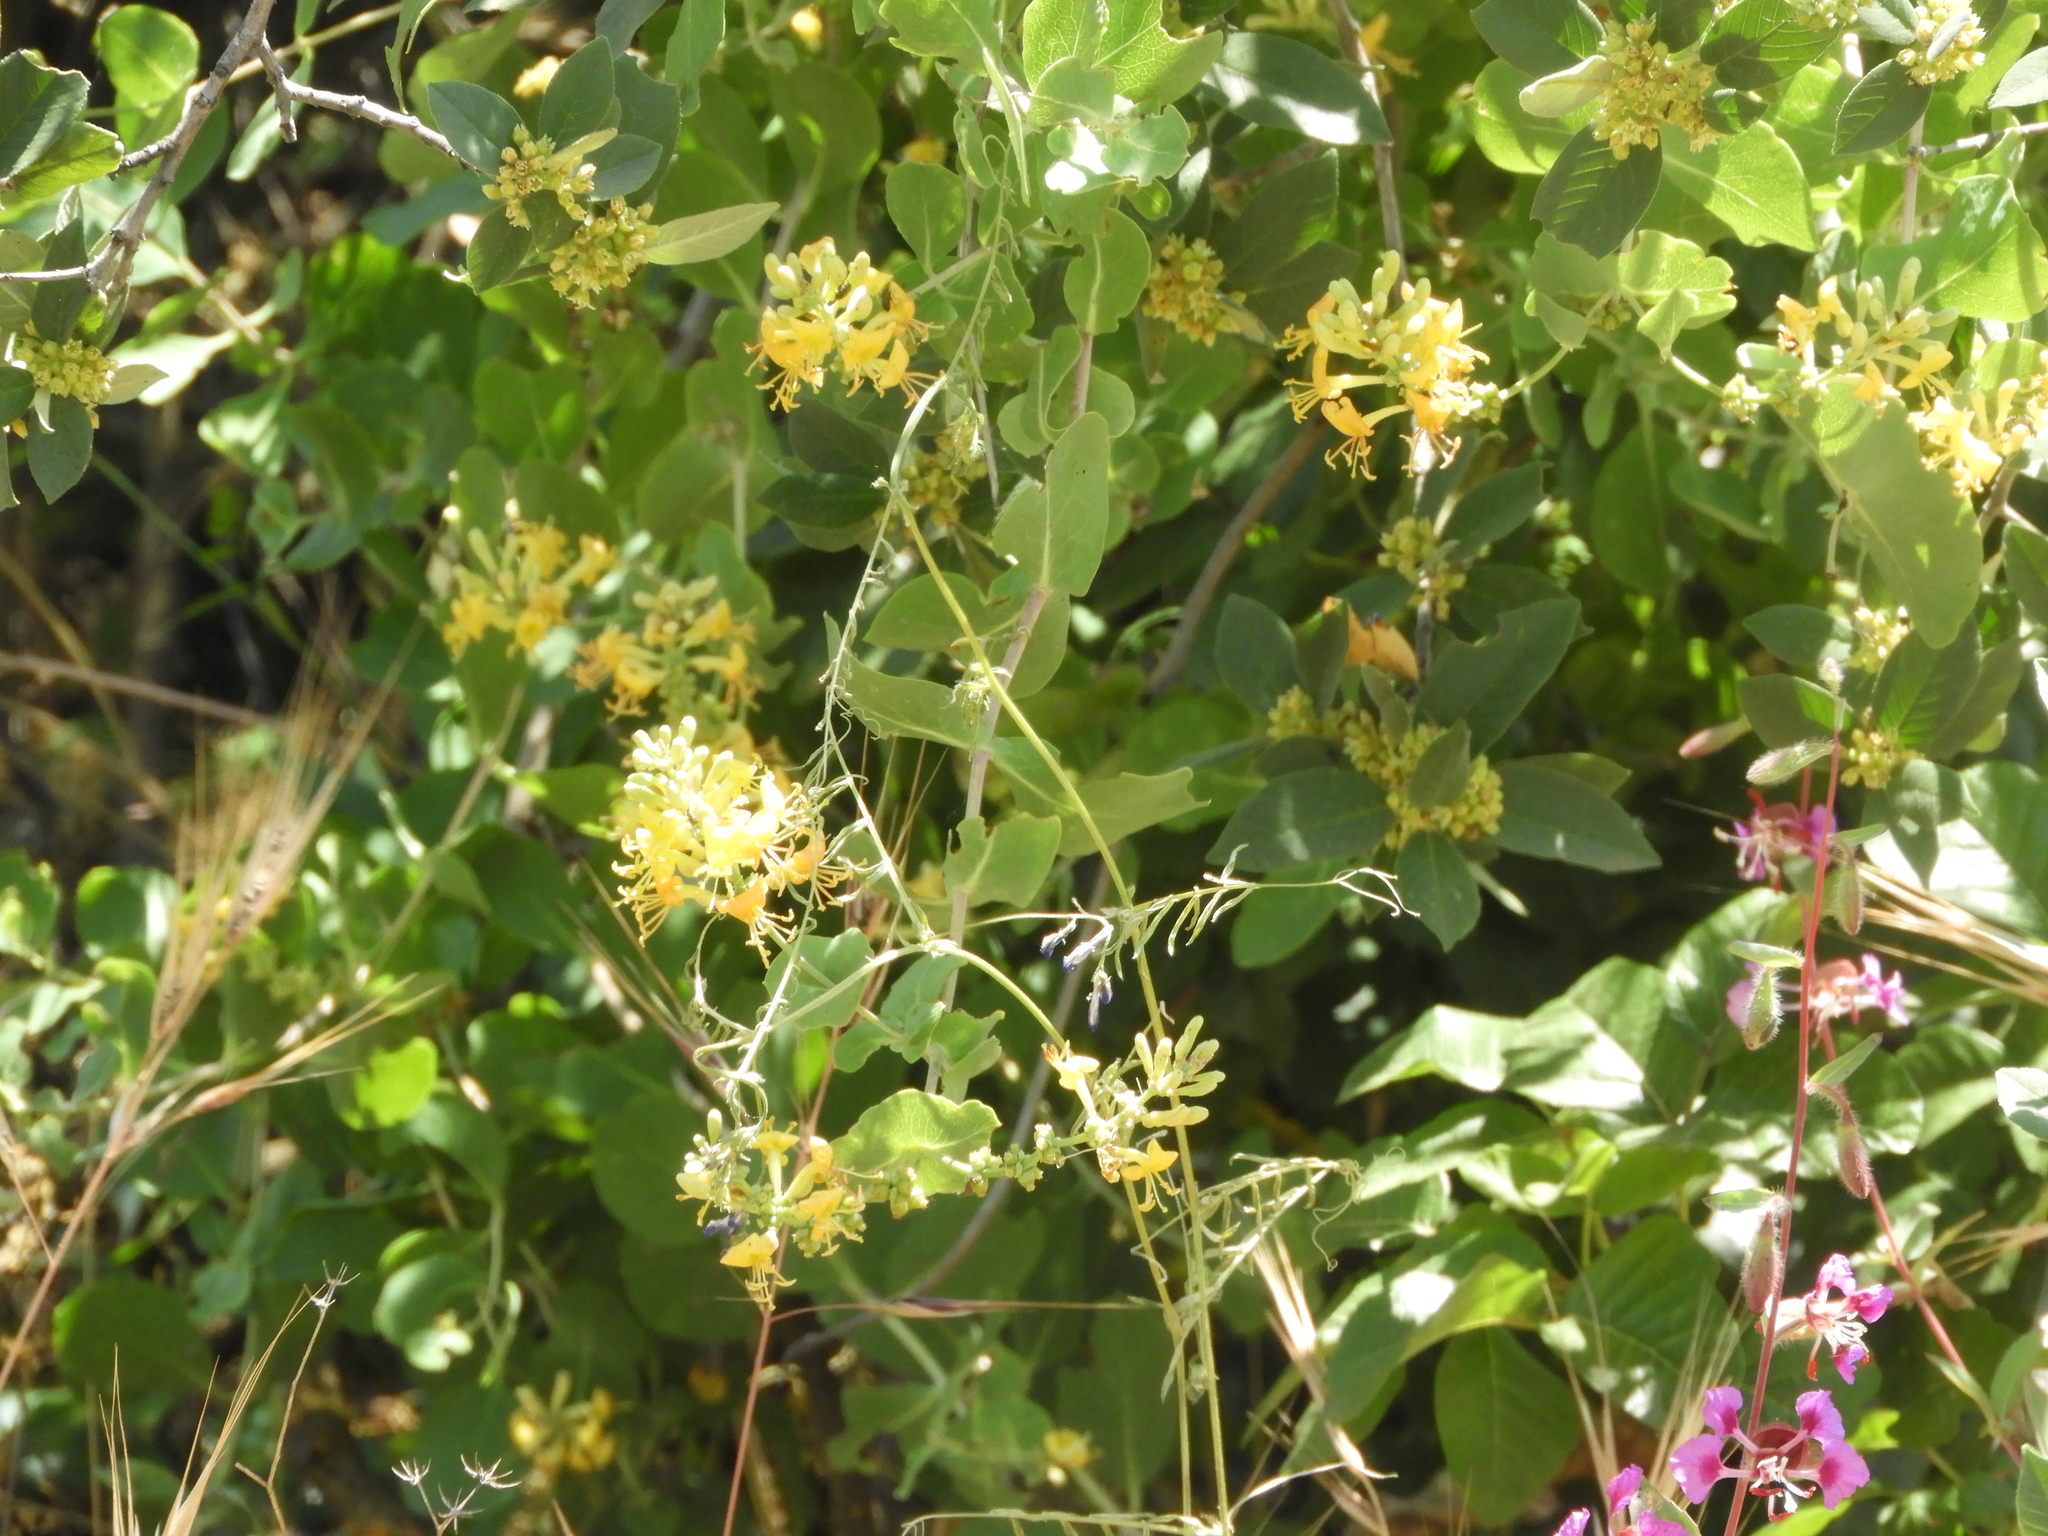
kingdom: Plantae
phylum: Tracheophyta
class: Magnoliopsida
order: Dipsacales
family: Caprifoliaceae
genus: Lonicera
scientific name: Lonicera interrupta
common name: Chaparral honeysuckle
